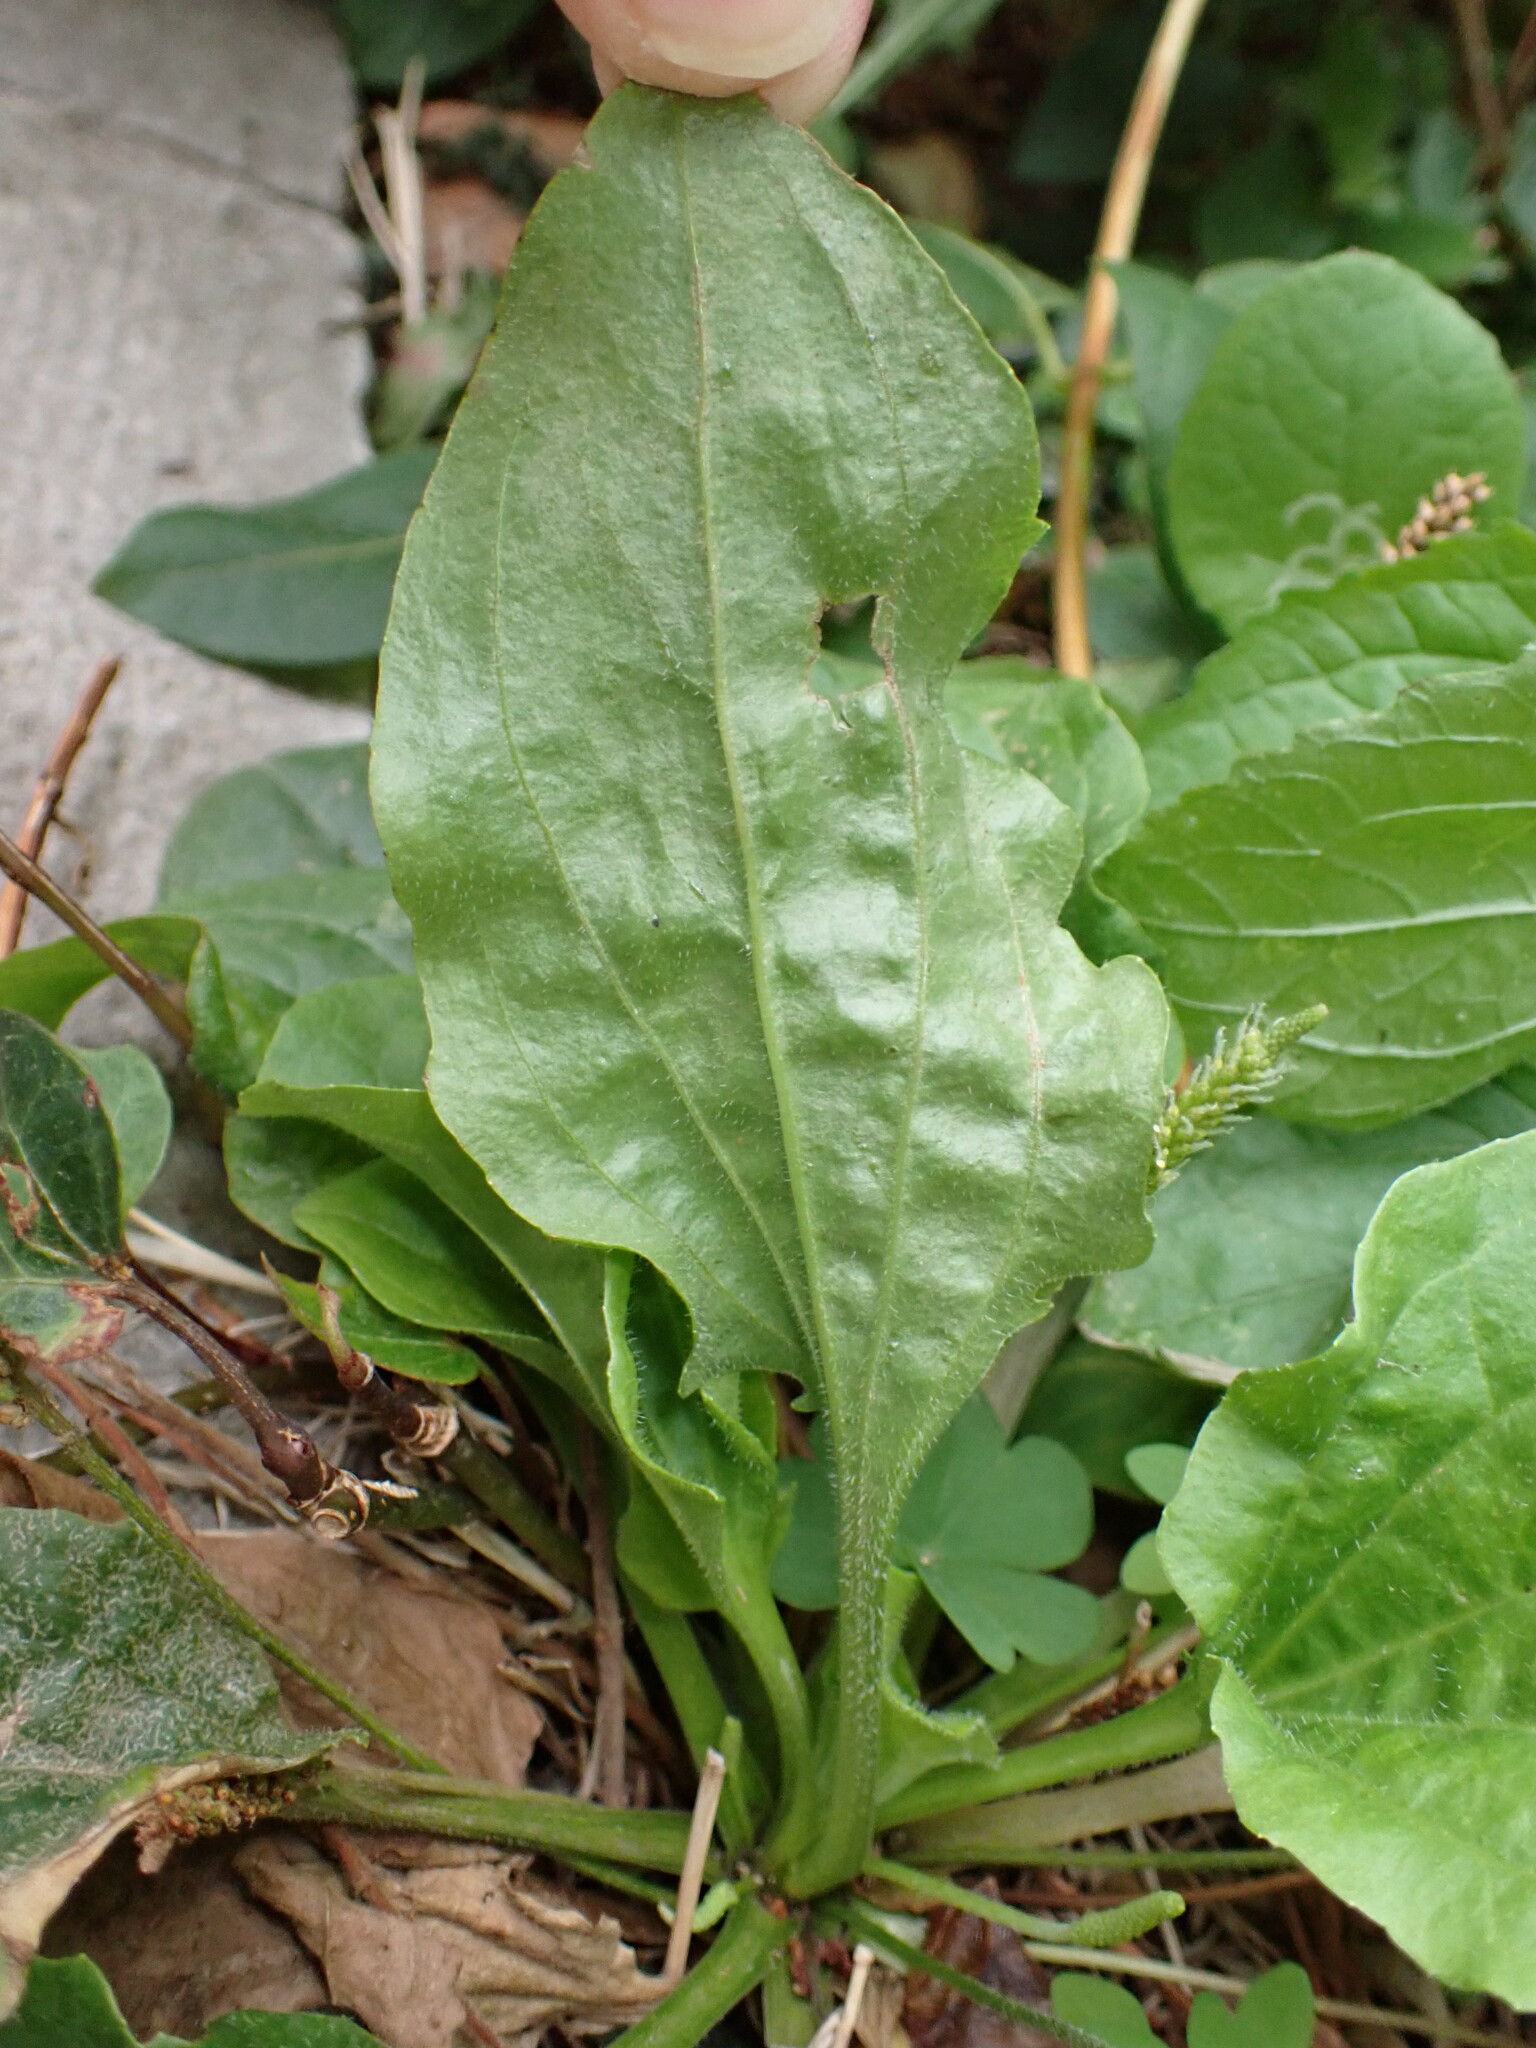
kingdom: Plantae
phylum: Tracheophyta
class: Magnoliopsida
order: Lamiales
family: Plantaginaceae
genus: Plantago
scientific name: Plantago major
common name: Common plantain
